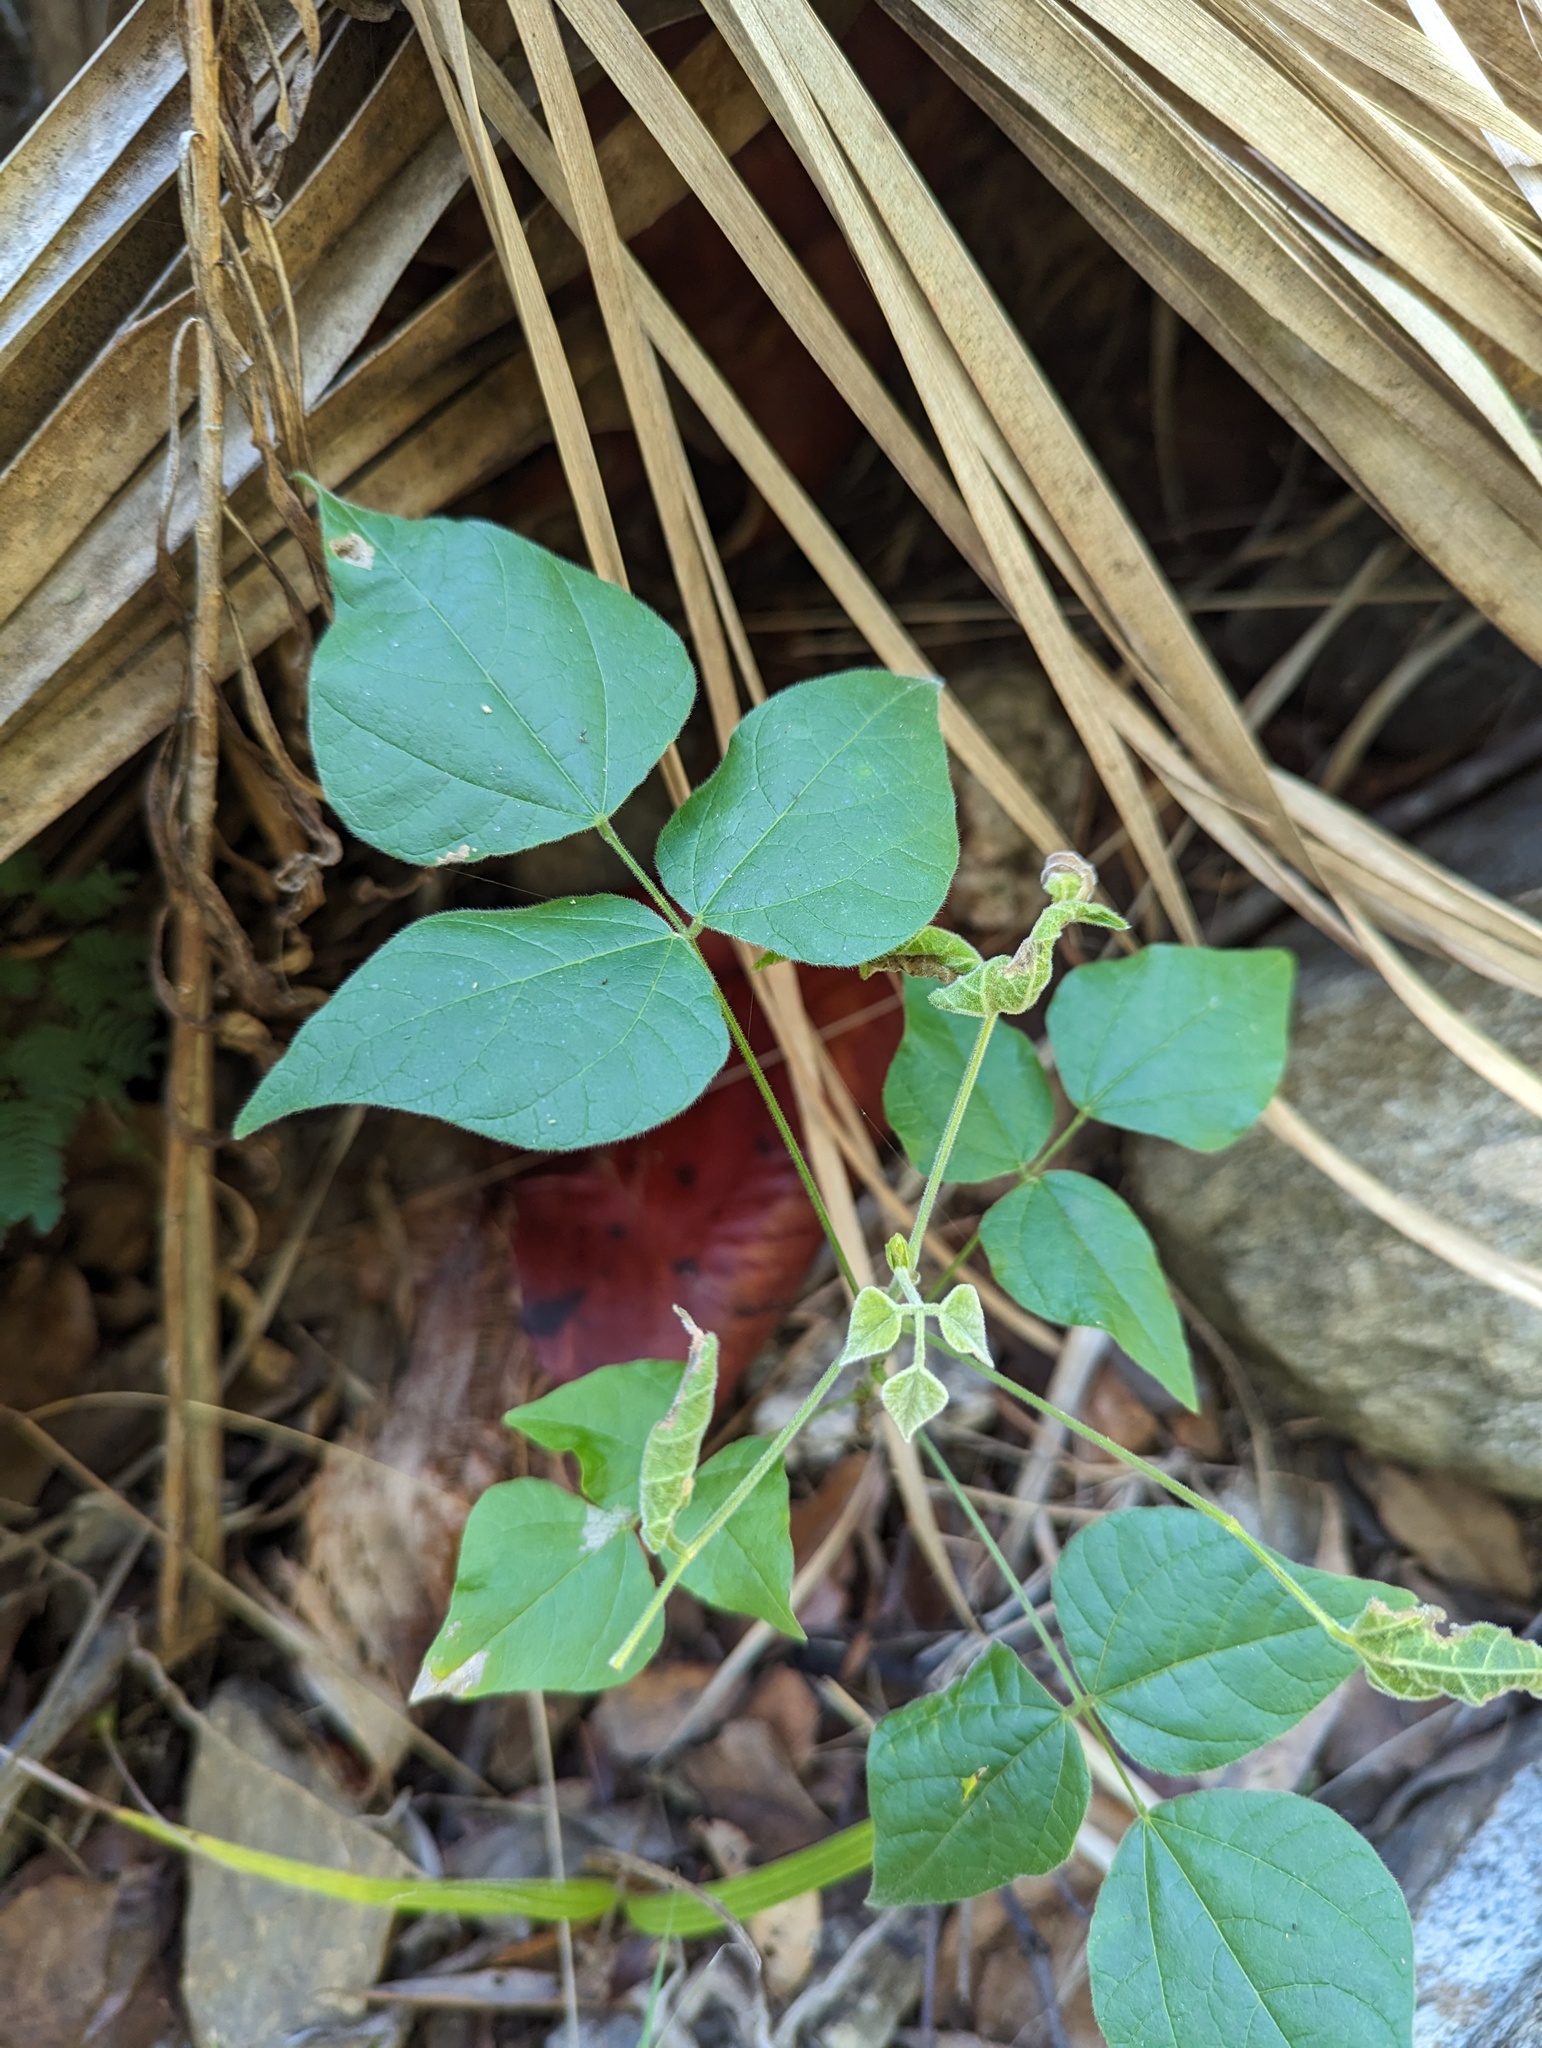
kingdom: Plantae
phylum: Tracheophyta
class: Magnoliopsida
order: Fabales
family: Fabaceae
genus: Rhynchosia
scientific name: Rhynchosia precatoria
